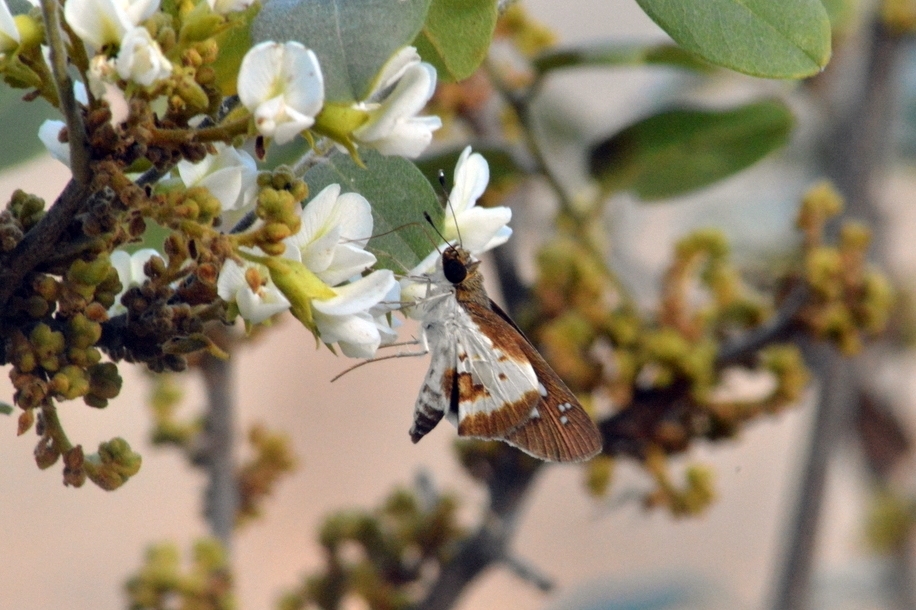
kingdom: Animalia
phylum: Arthropoda
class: Insecta
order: Lepidoptera
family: Hesperiidae
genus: Andronymus
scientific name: Andronymus caesar
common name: Common dart
